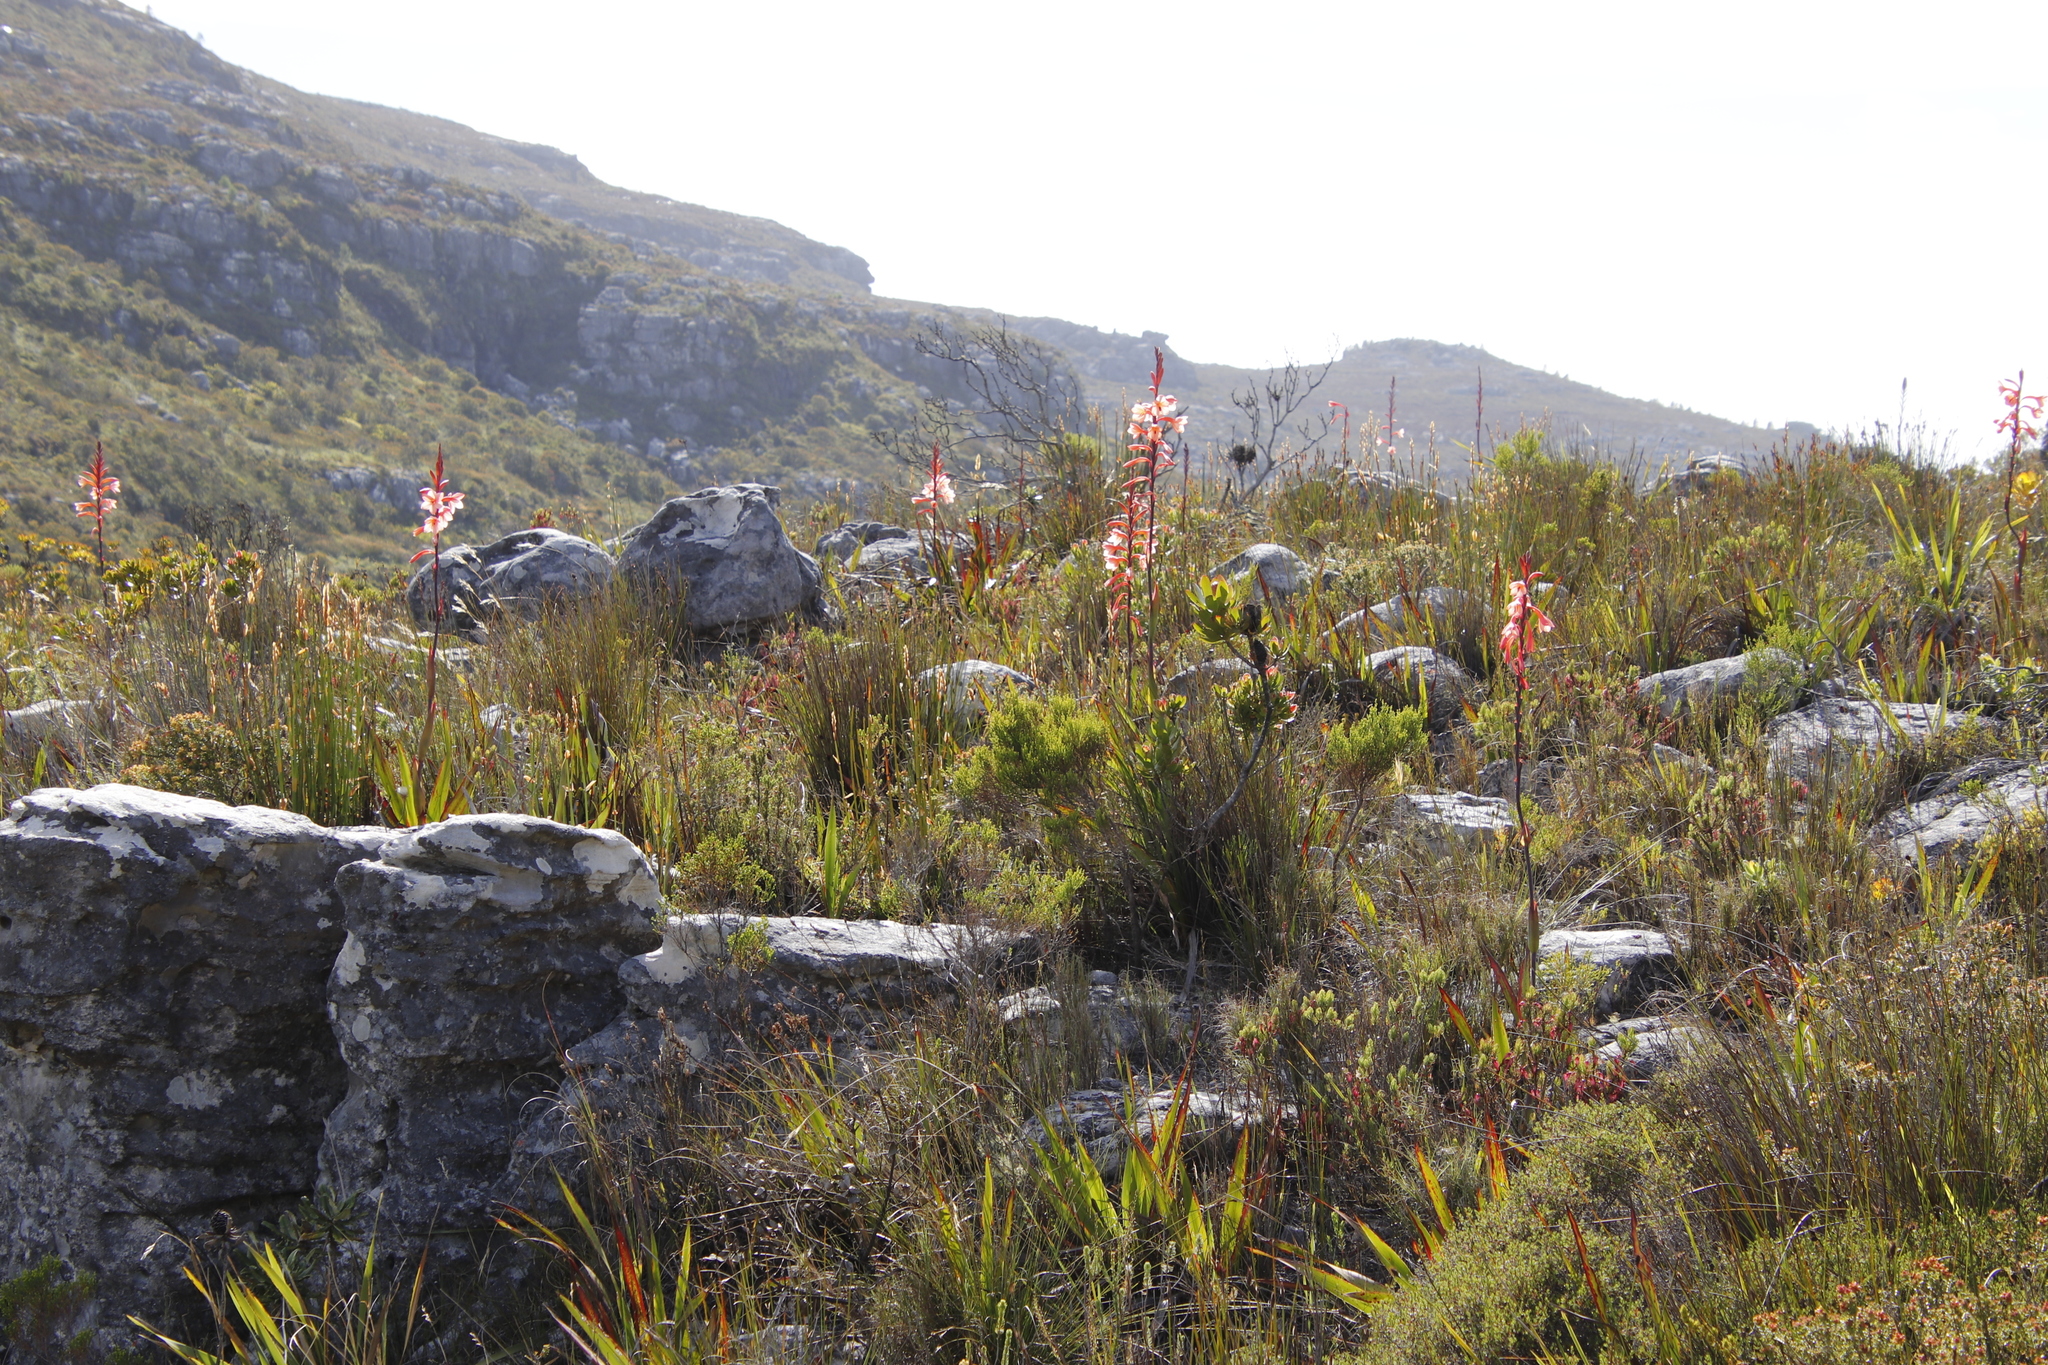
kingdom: Plantae
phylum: Tracheophyta
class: Liliopsida
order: Asparagales
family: Iridaceae
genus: Watsonia
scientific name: Watsonia tabularis
